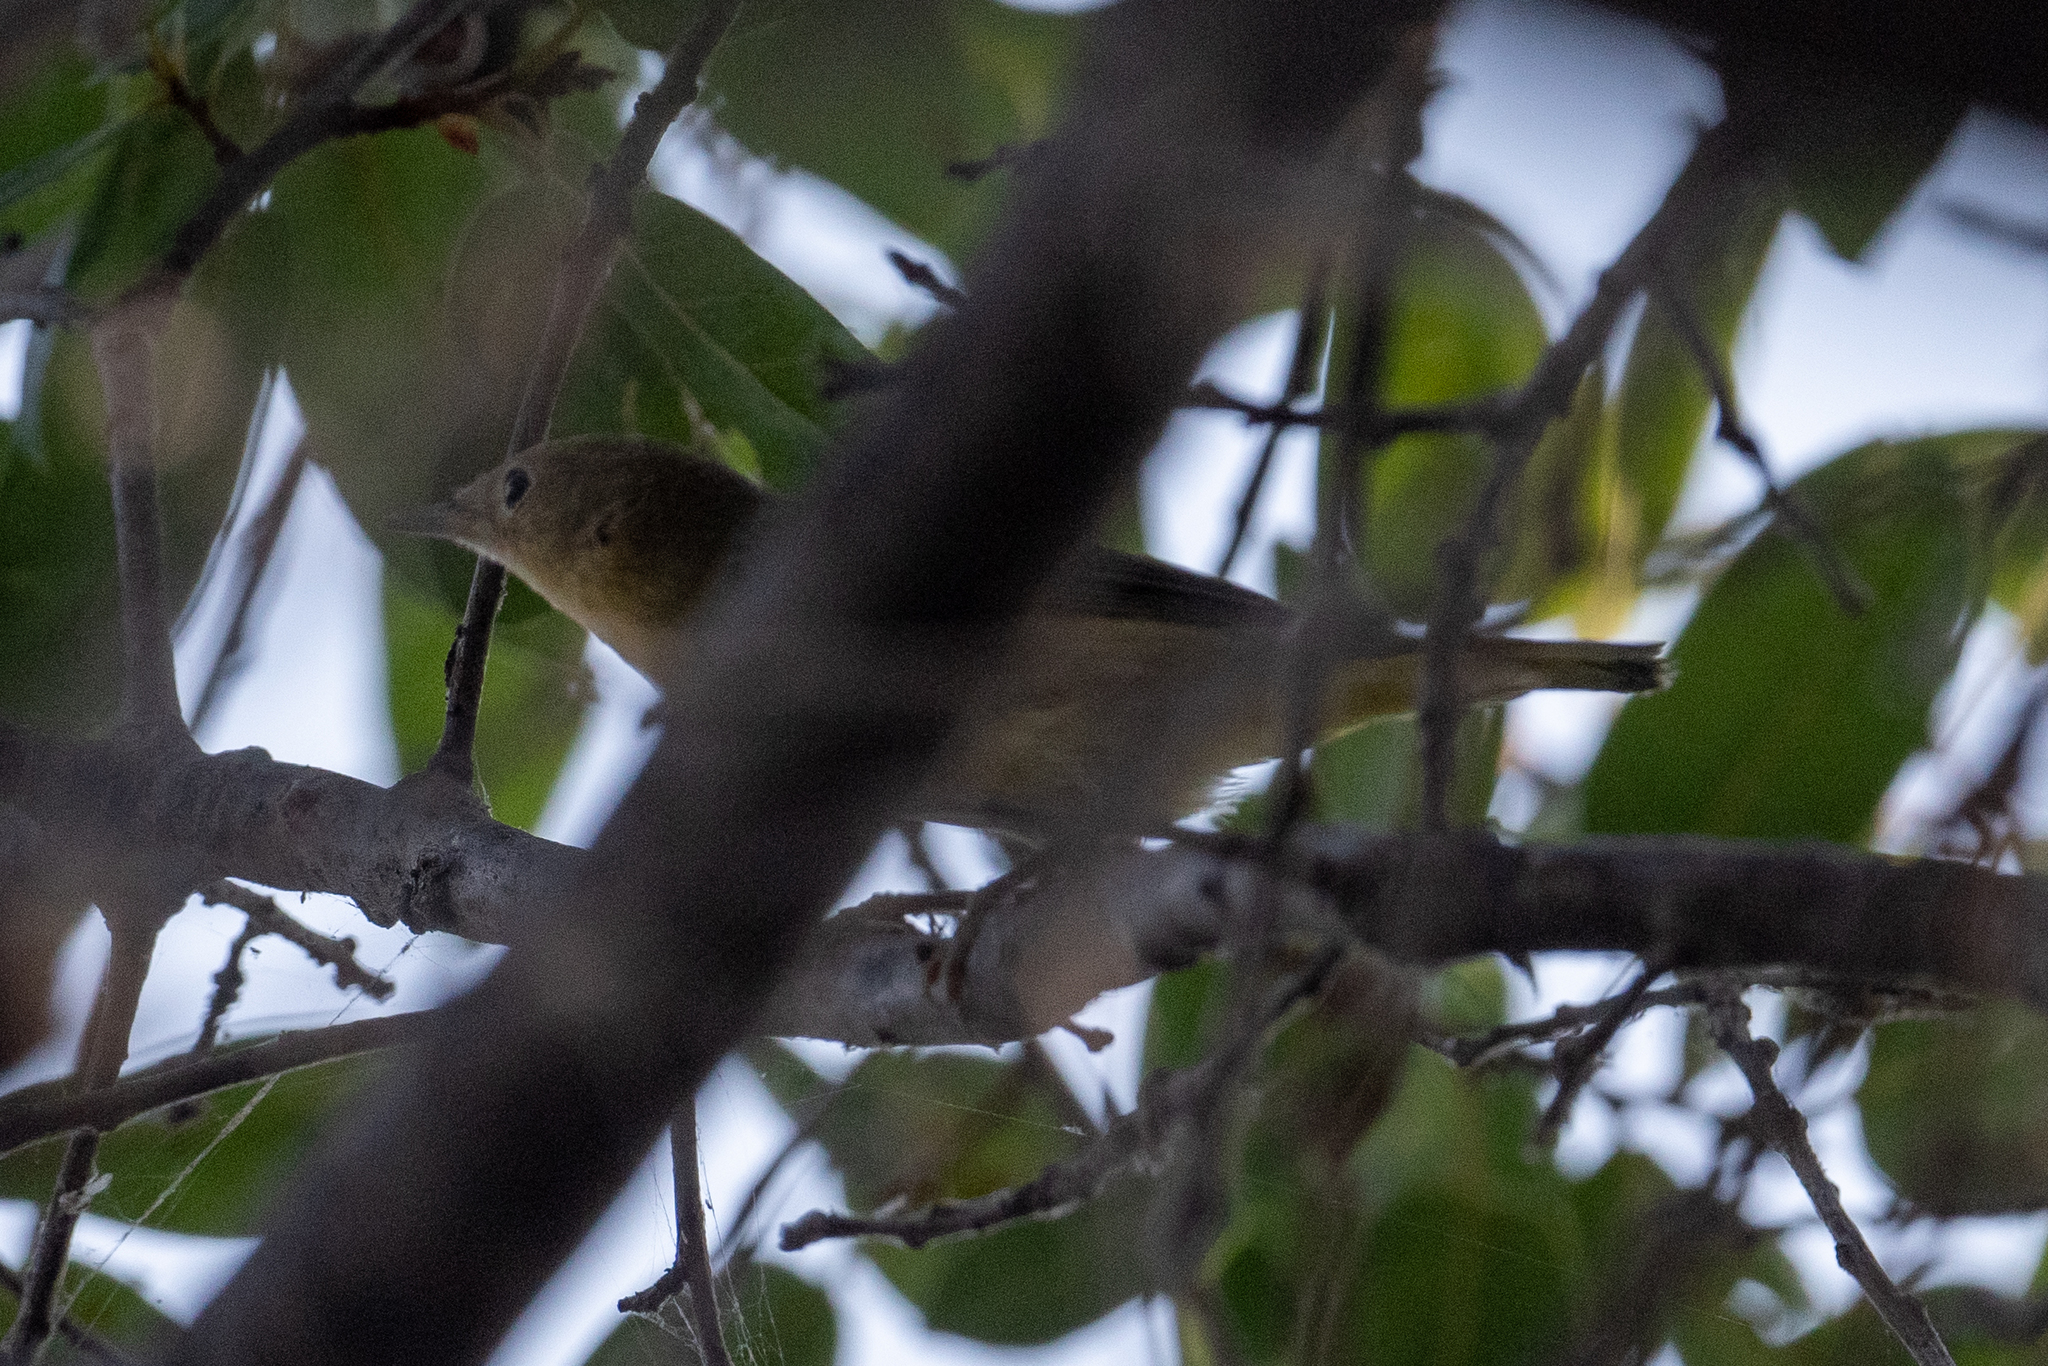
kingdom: Animalia
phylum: Chordata
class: Aves
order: Passeriformes
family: Parulidae
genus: Setophaga
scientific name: Setophaga petechia
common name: Yellow warbler
